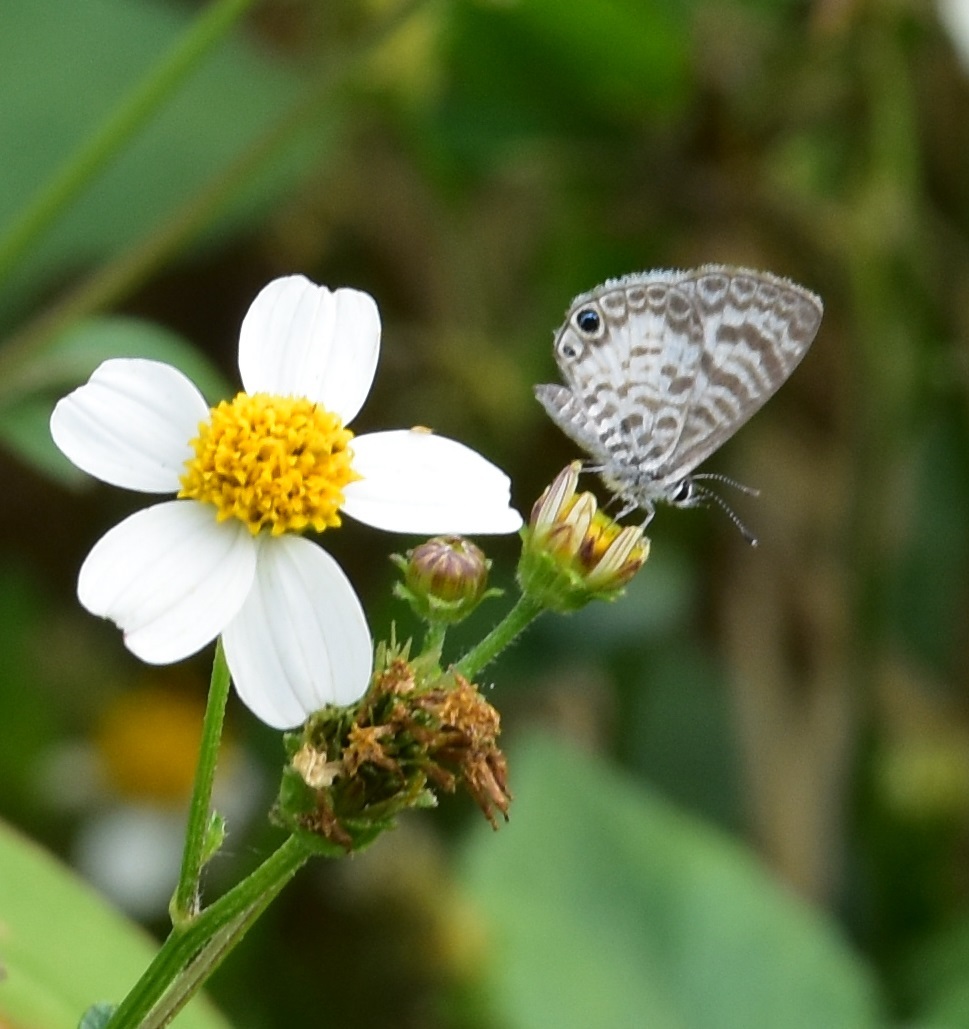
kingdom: Animalia
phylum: Arthropoda
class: Insecta
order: Lepidoptera
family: Lycaenidae
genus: Leptotes
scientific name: Leptotes cassius
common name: Cassius blue
